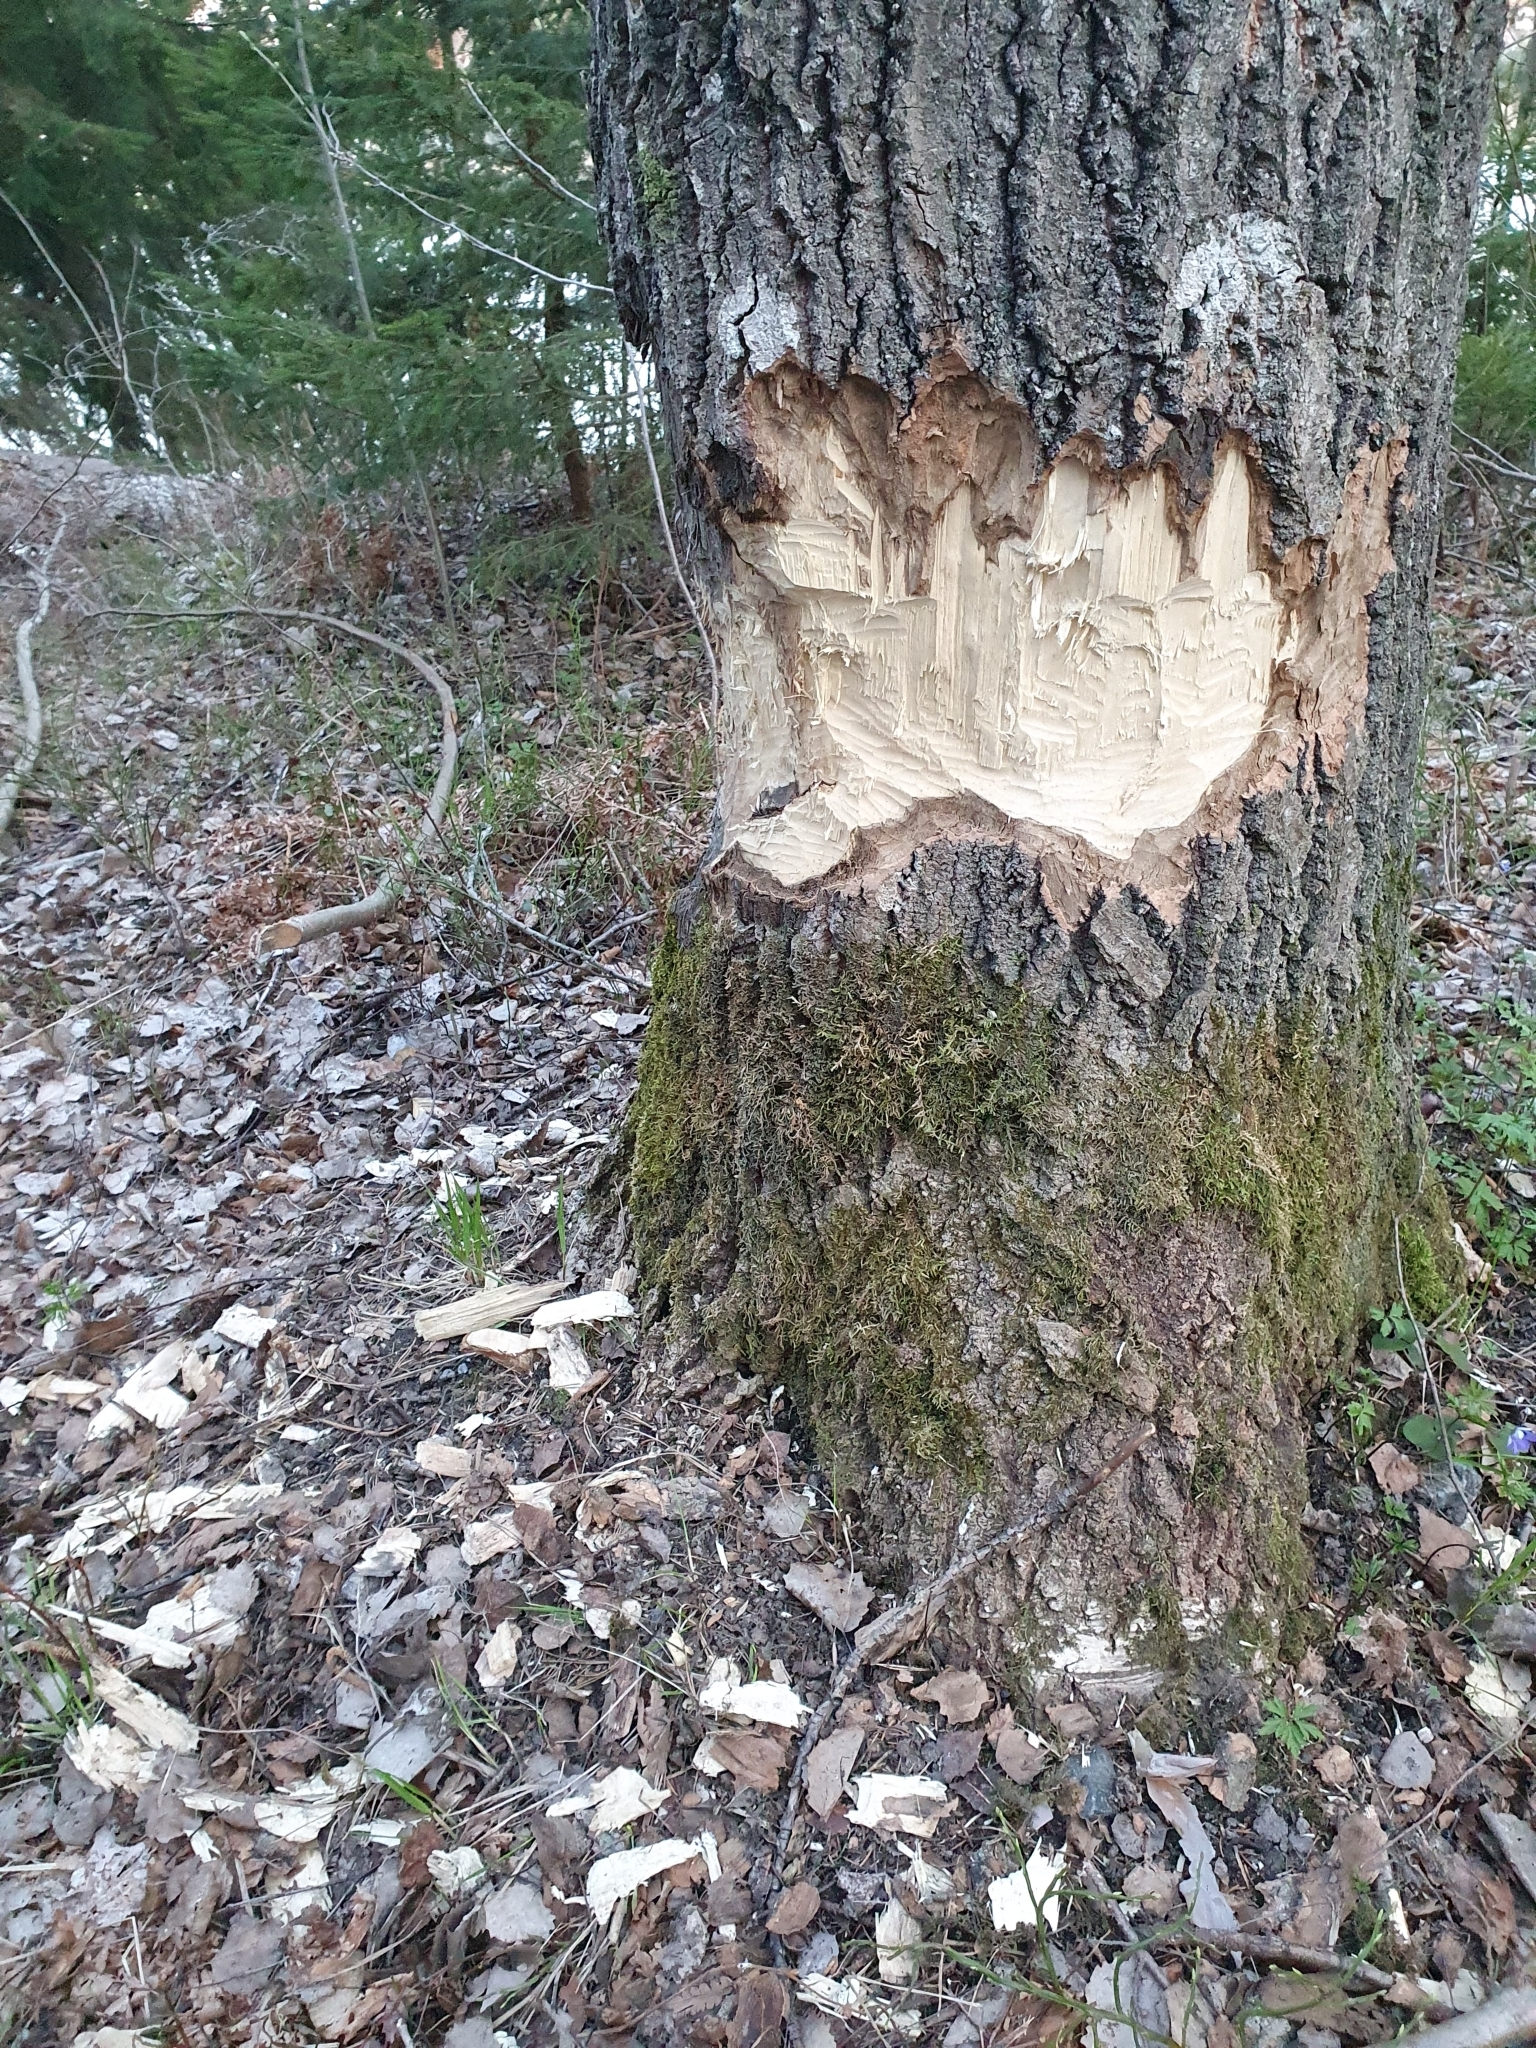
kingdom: Animalia
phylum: Chordata
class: Mammalia
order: Rodentia
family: Castoridae
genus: Castor
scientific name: Castor fiber
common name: Eurasian beaver
